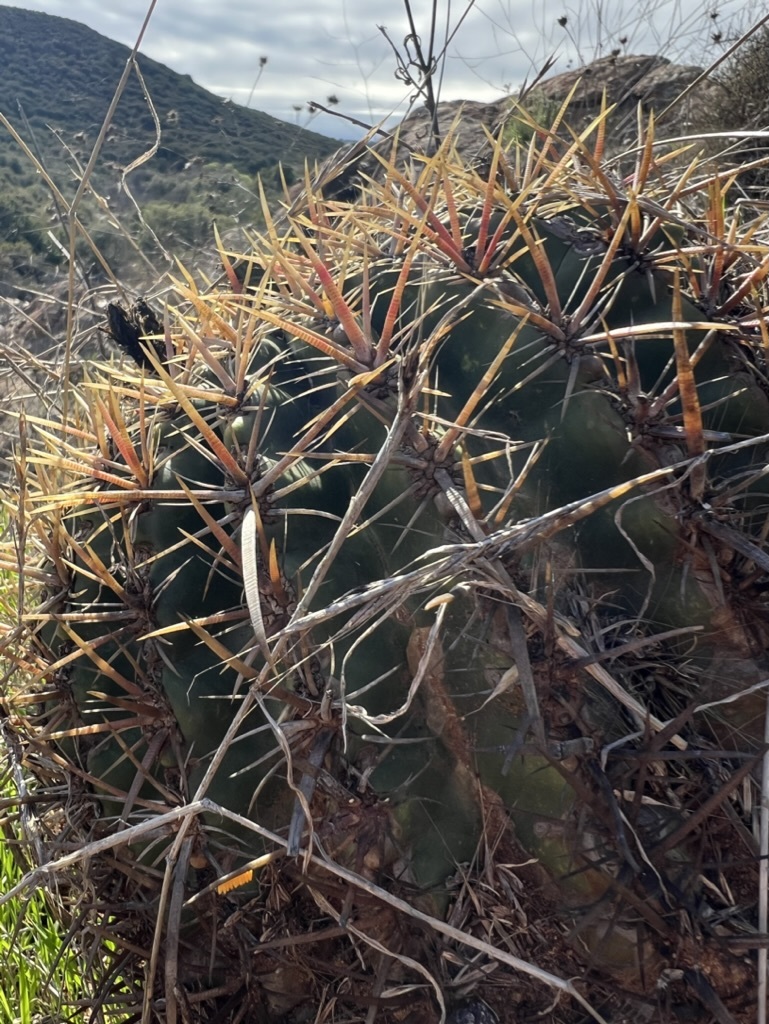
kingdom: Plantae
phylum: Tracheophyta
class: Magnoliopsida
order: Caryophyllales
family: Cactaceae
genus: Ferocactus
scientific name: Ferocactus viridescens
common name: San diego barrel cactus
